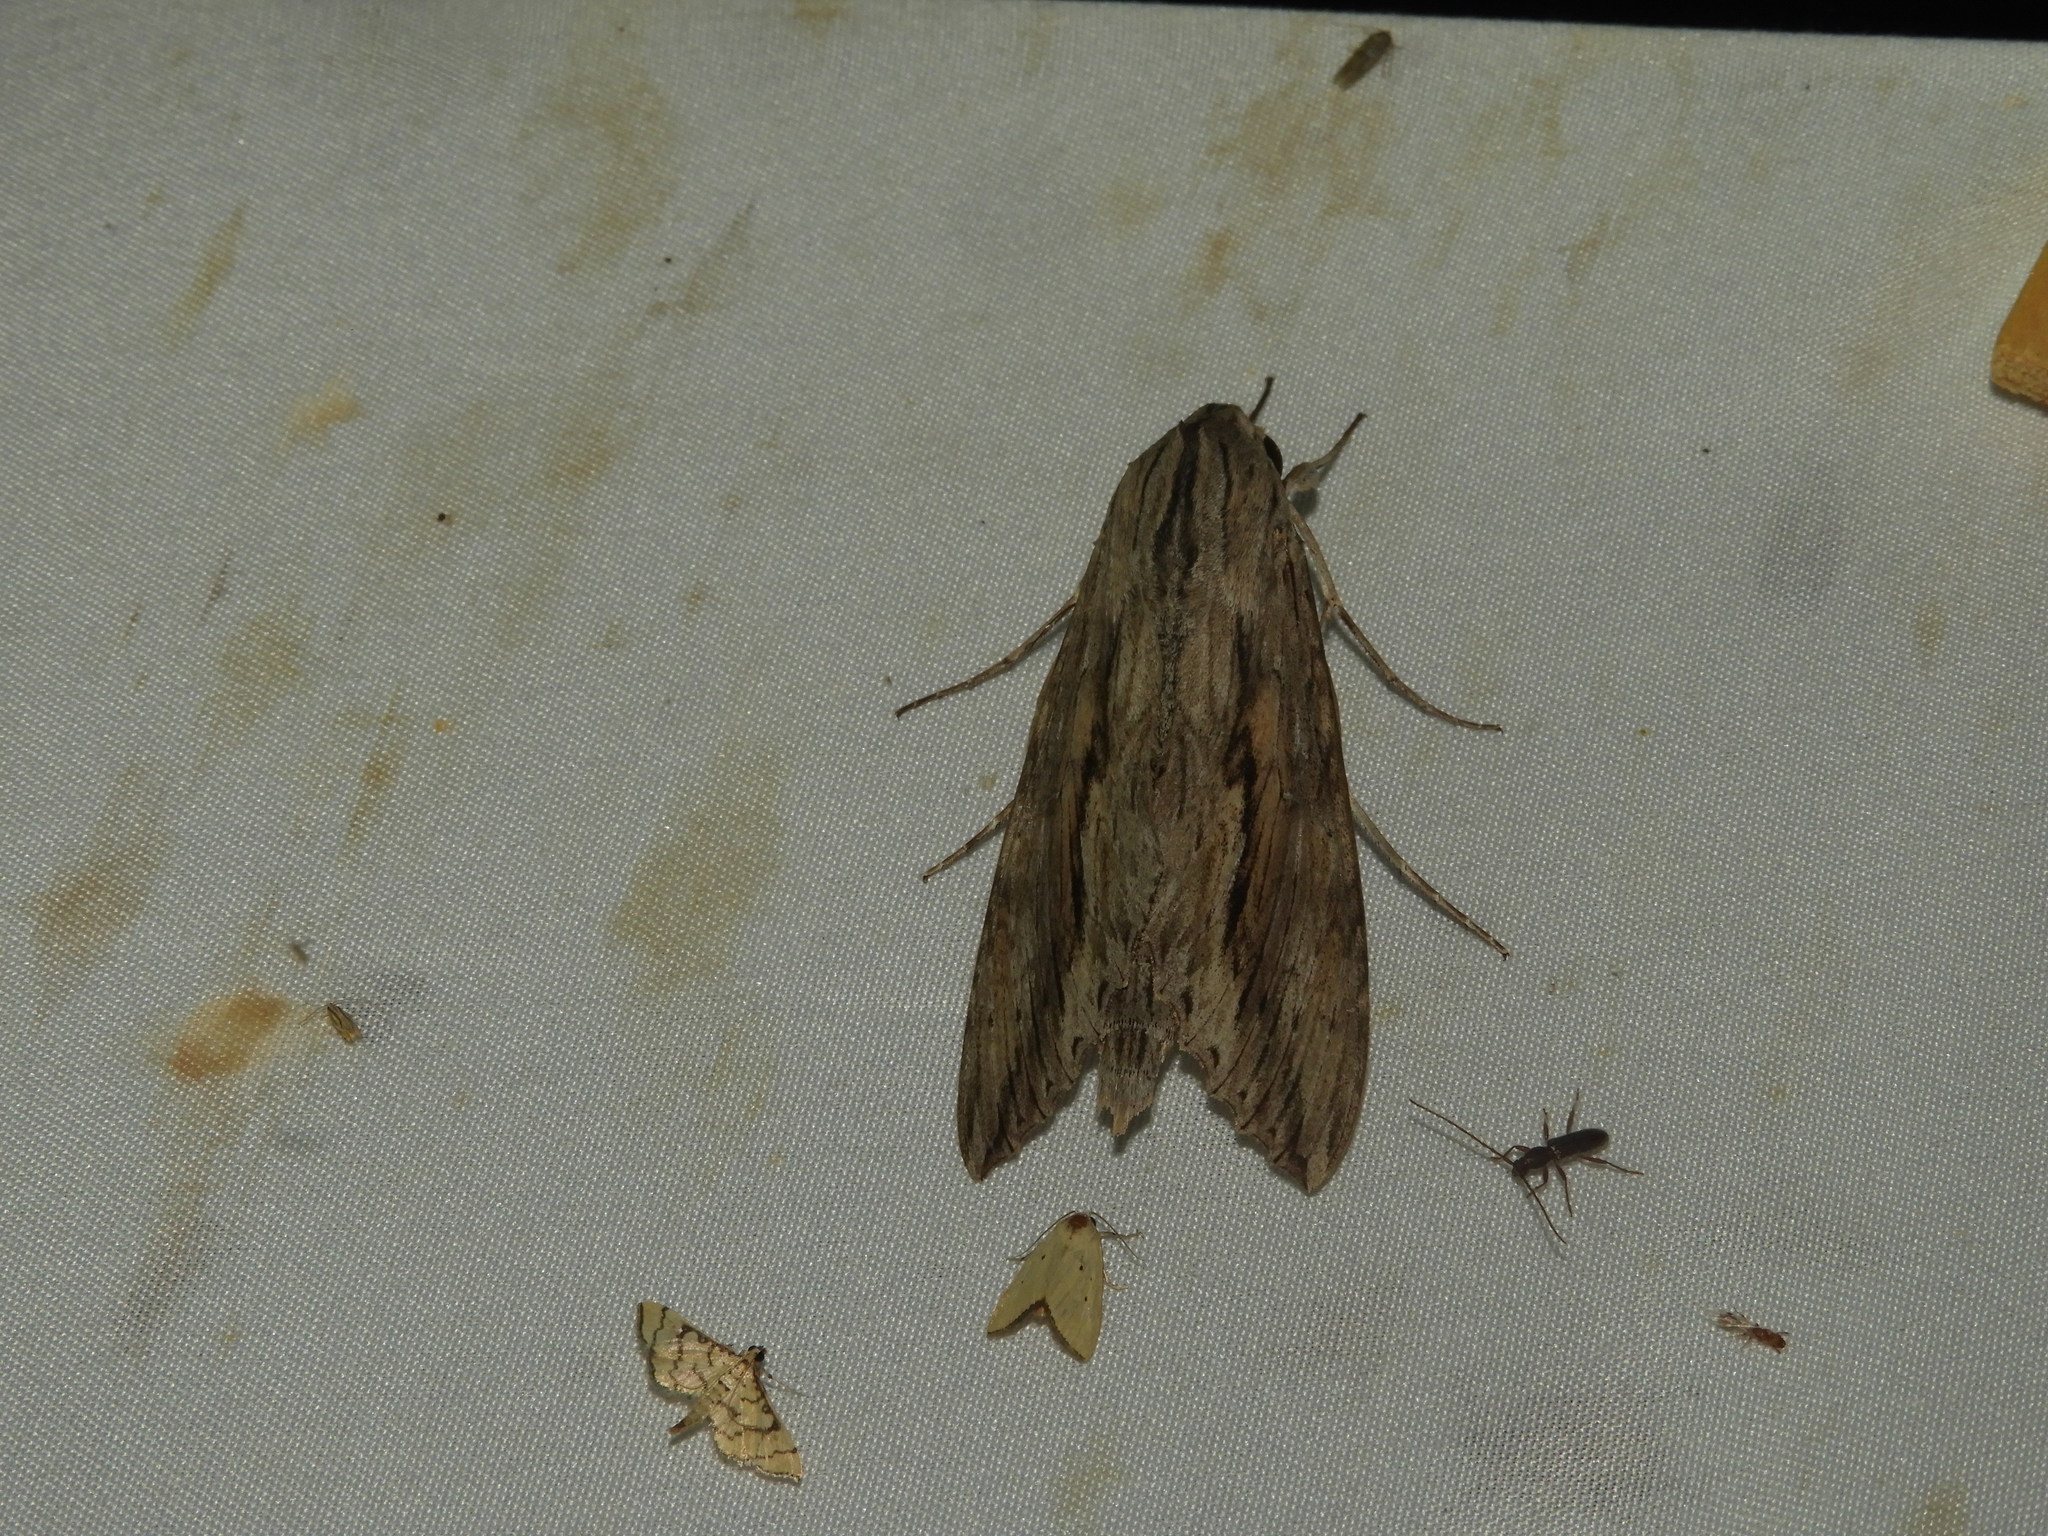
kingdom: Animalia
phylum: Arthropoda
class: Insecta
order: Lepidoptera
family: Sphingidae
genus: Erinnyis
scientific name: Erinnyis ello
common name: Ello sphinx
